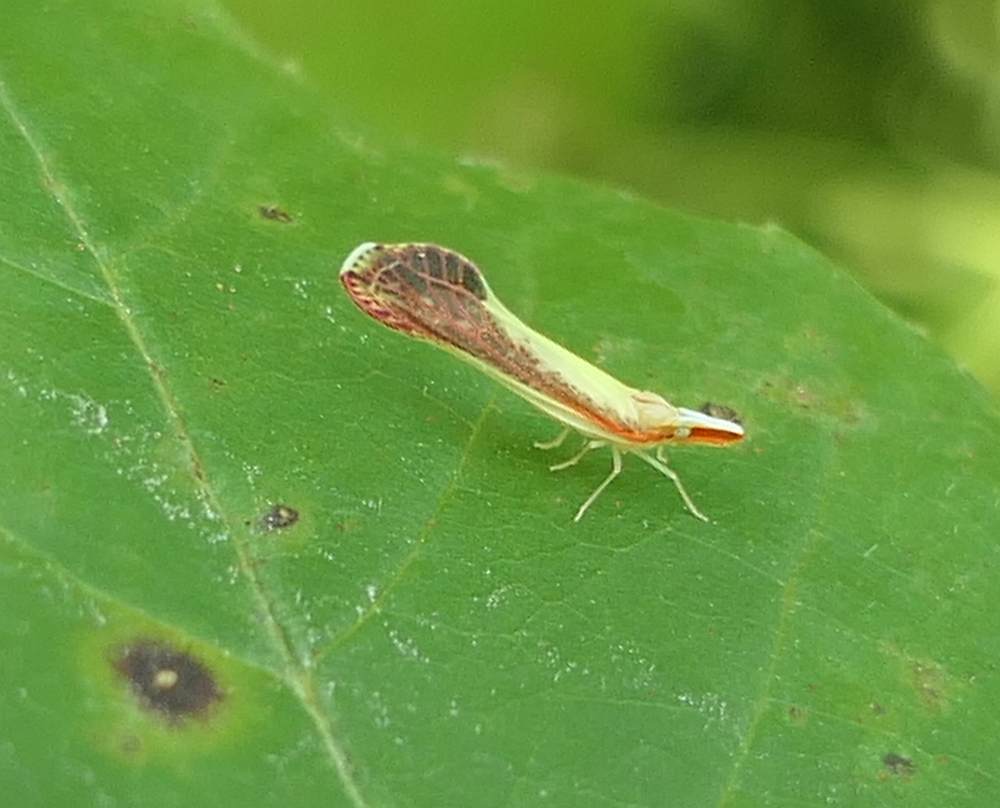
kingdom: Animalia
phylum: Arthropoda
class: Insecta
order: Hemiptera
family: Derbidae
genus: Shellenius
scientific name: Shellenius ballii
